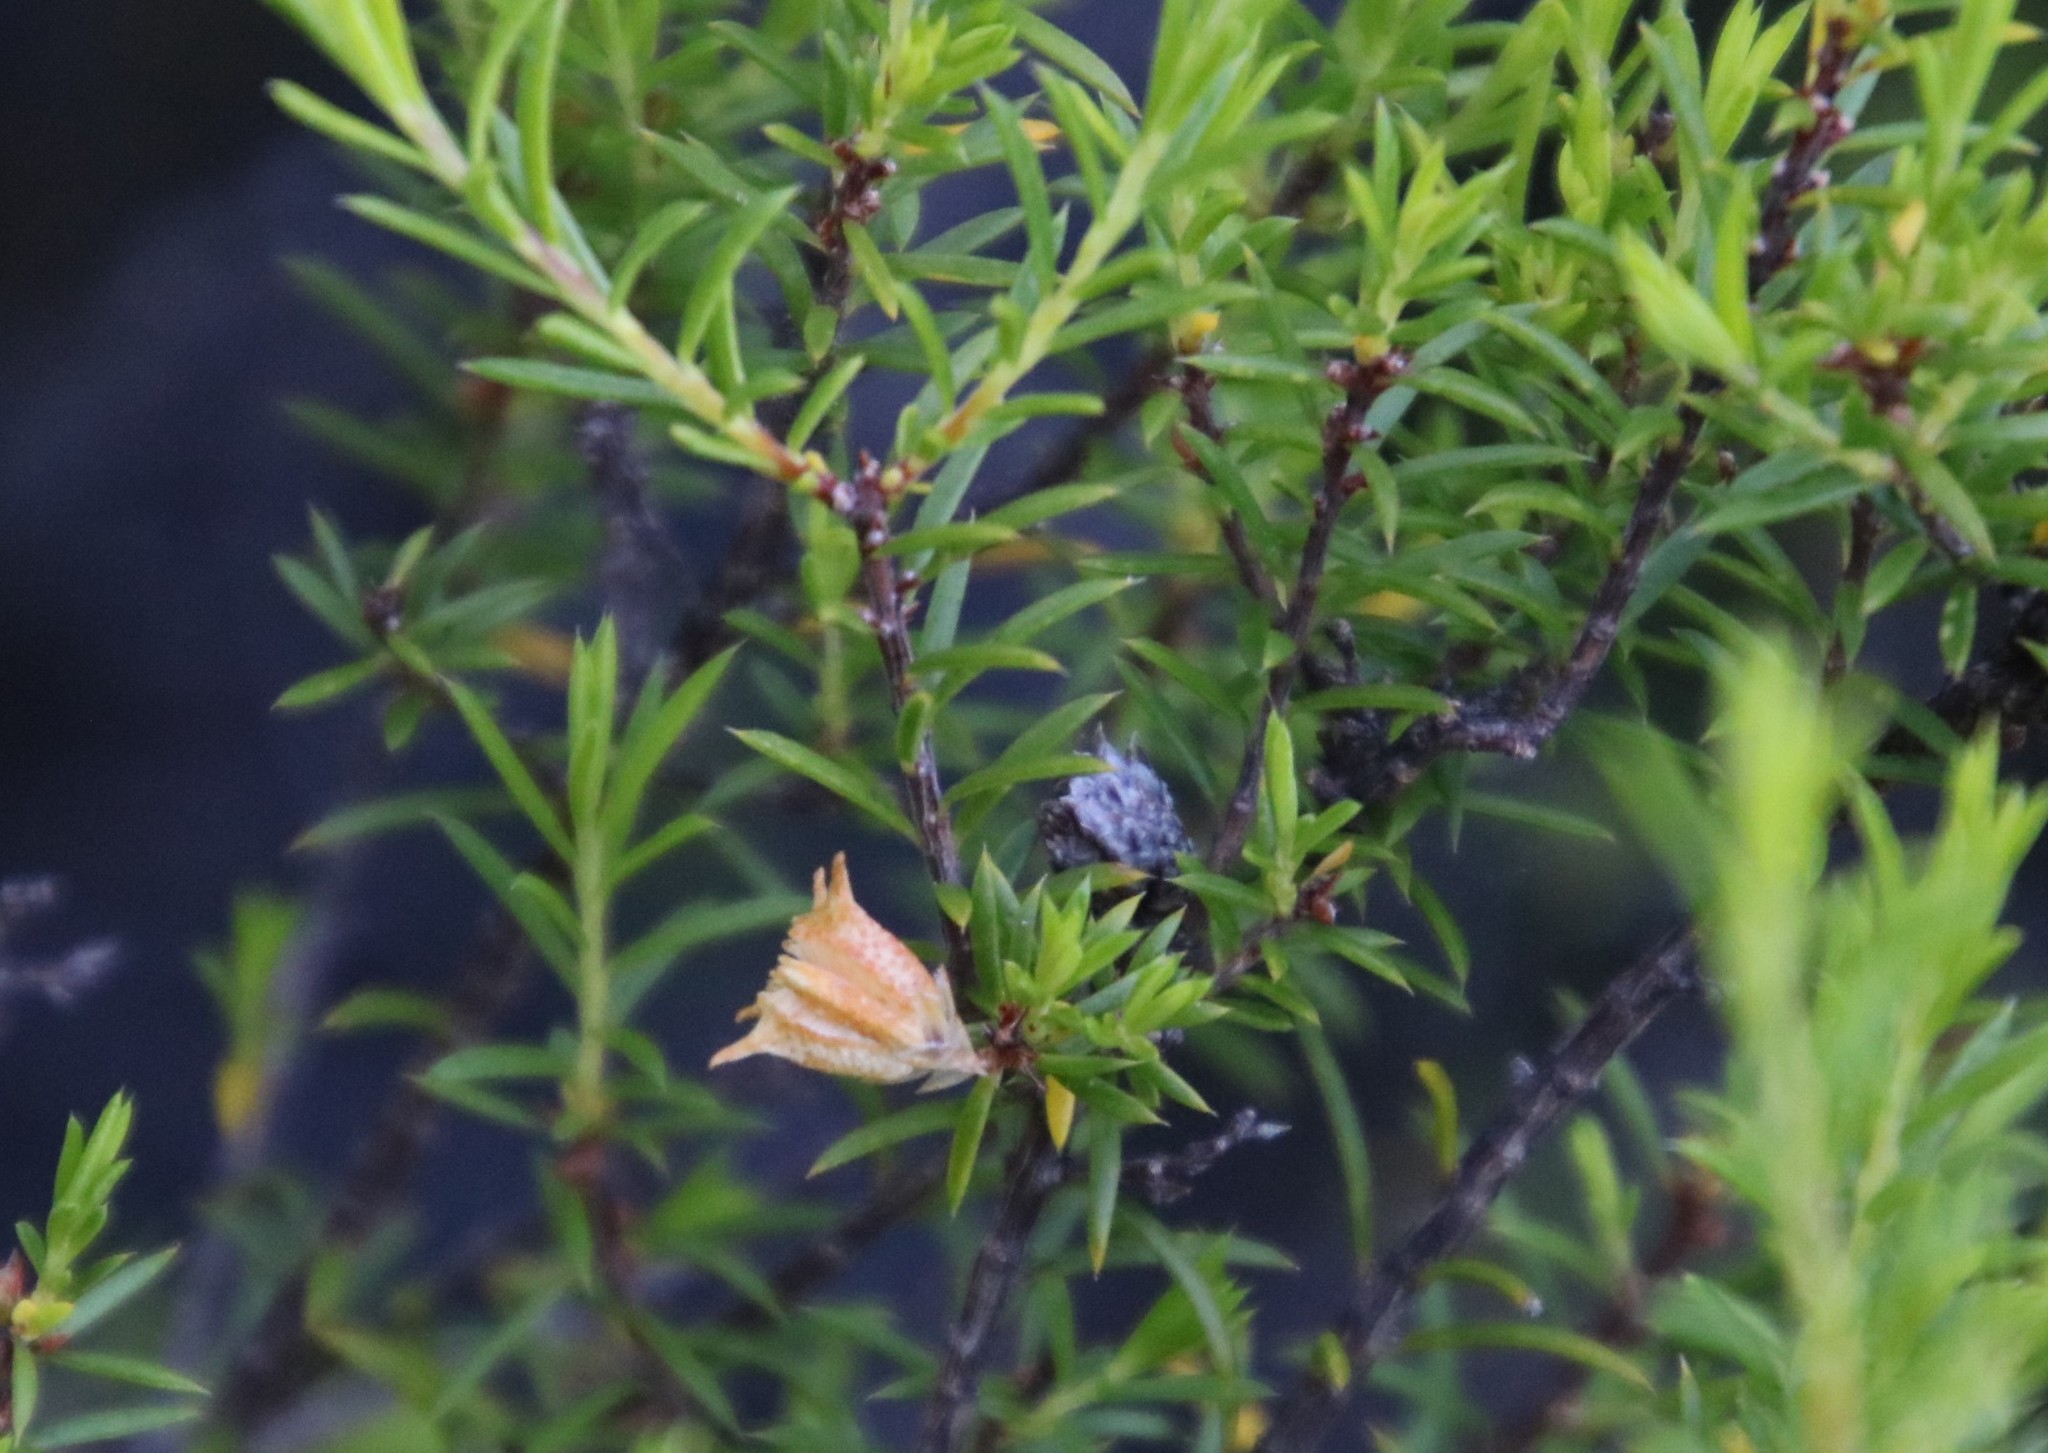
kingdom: Plantae
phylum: Tracheophyta
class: Magnoliopsida
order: Sapindales
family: Rutaceae
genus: Coleonema
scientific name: Coleonema album
